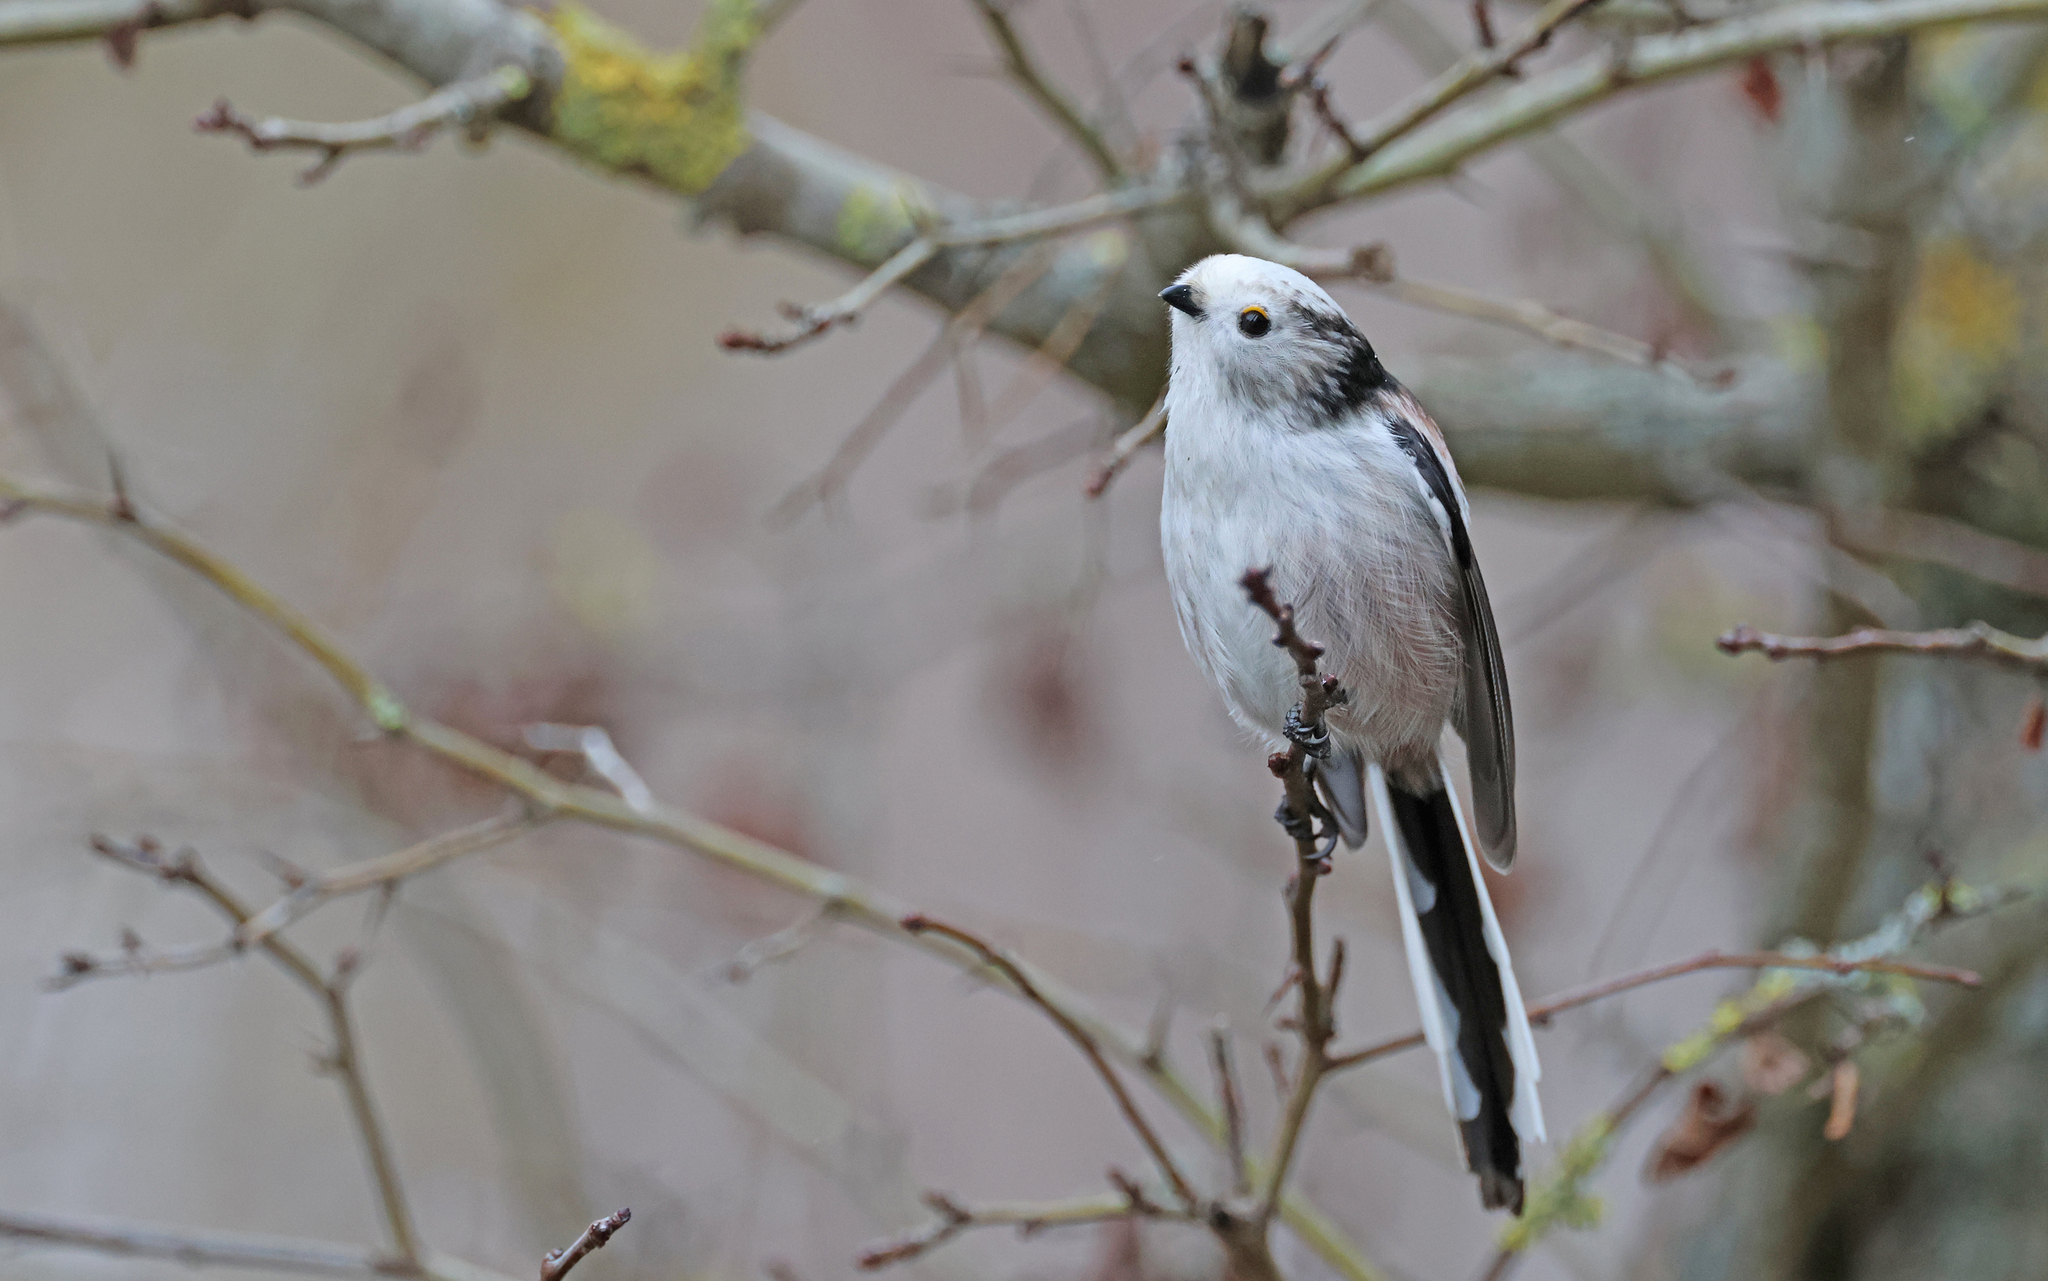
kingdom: Animalia
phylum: Chordata
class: Aves
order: Passeriformes
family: Aegithalidae
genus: Aegithalos
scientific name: Aegithalos caudatus
